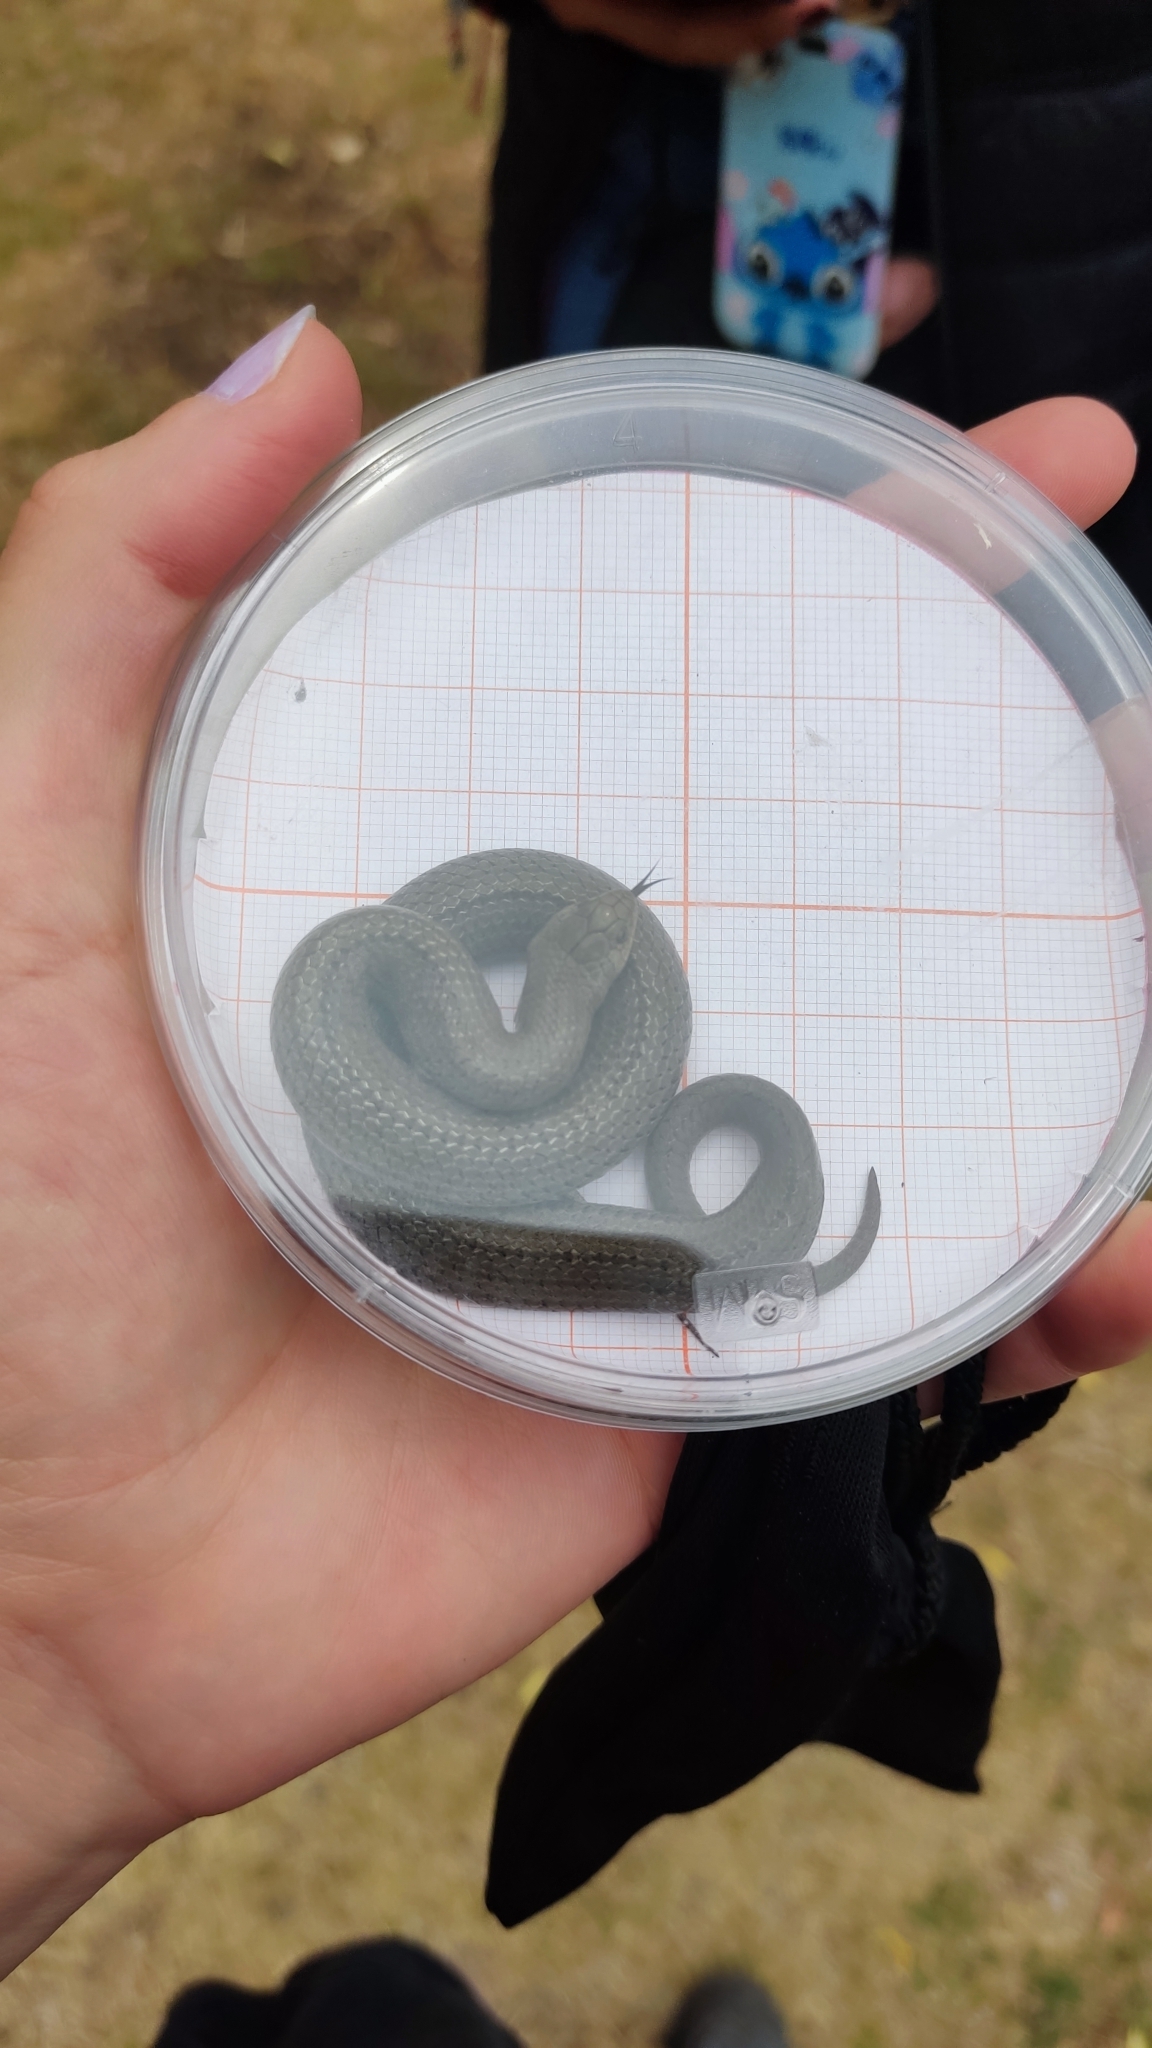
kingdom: Animalia
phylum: Chordata
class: Squamata
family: Colubridae
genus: Conopsis
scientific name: Conopsis lineata
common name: Lined tolucan earthsnake
